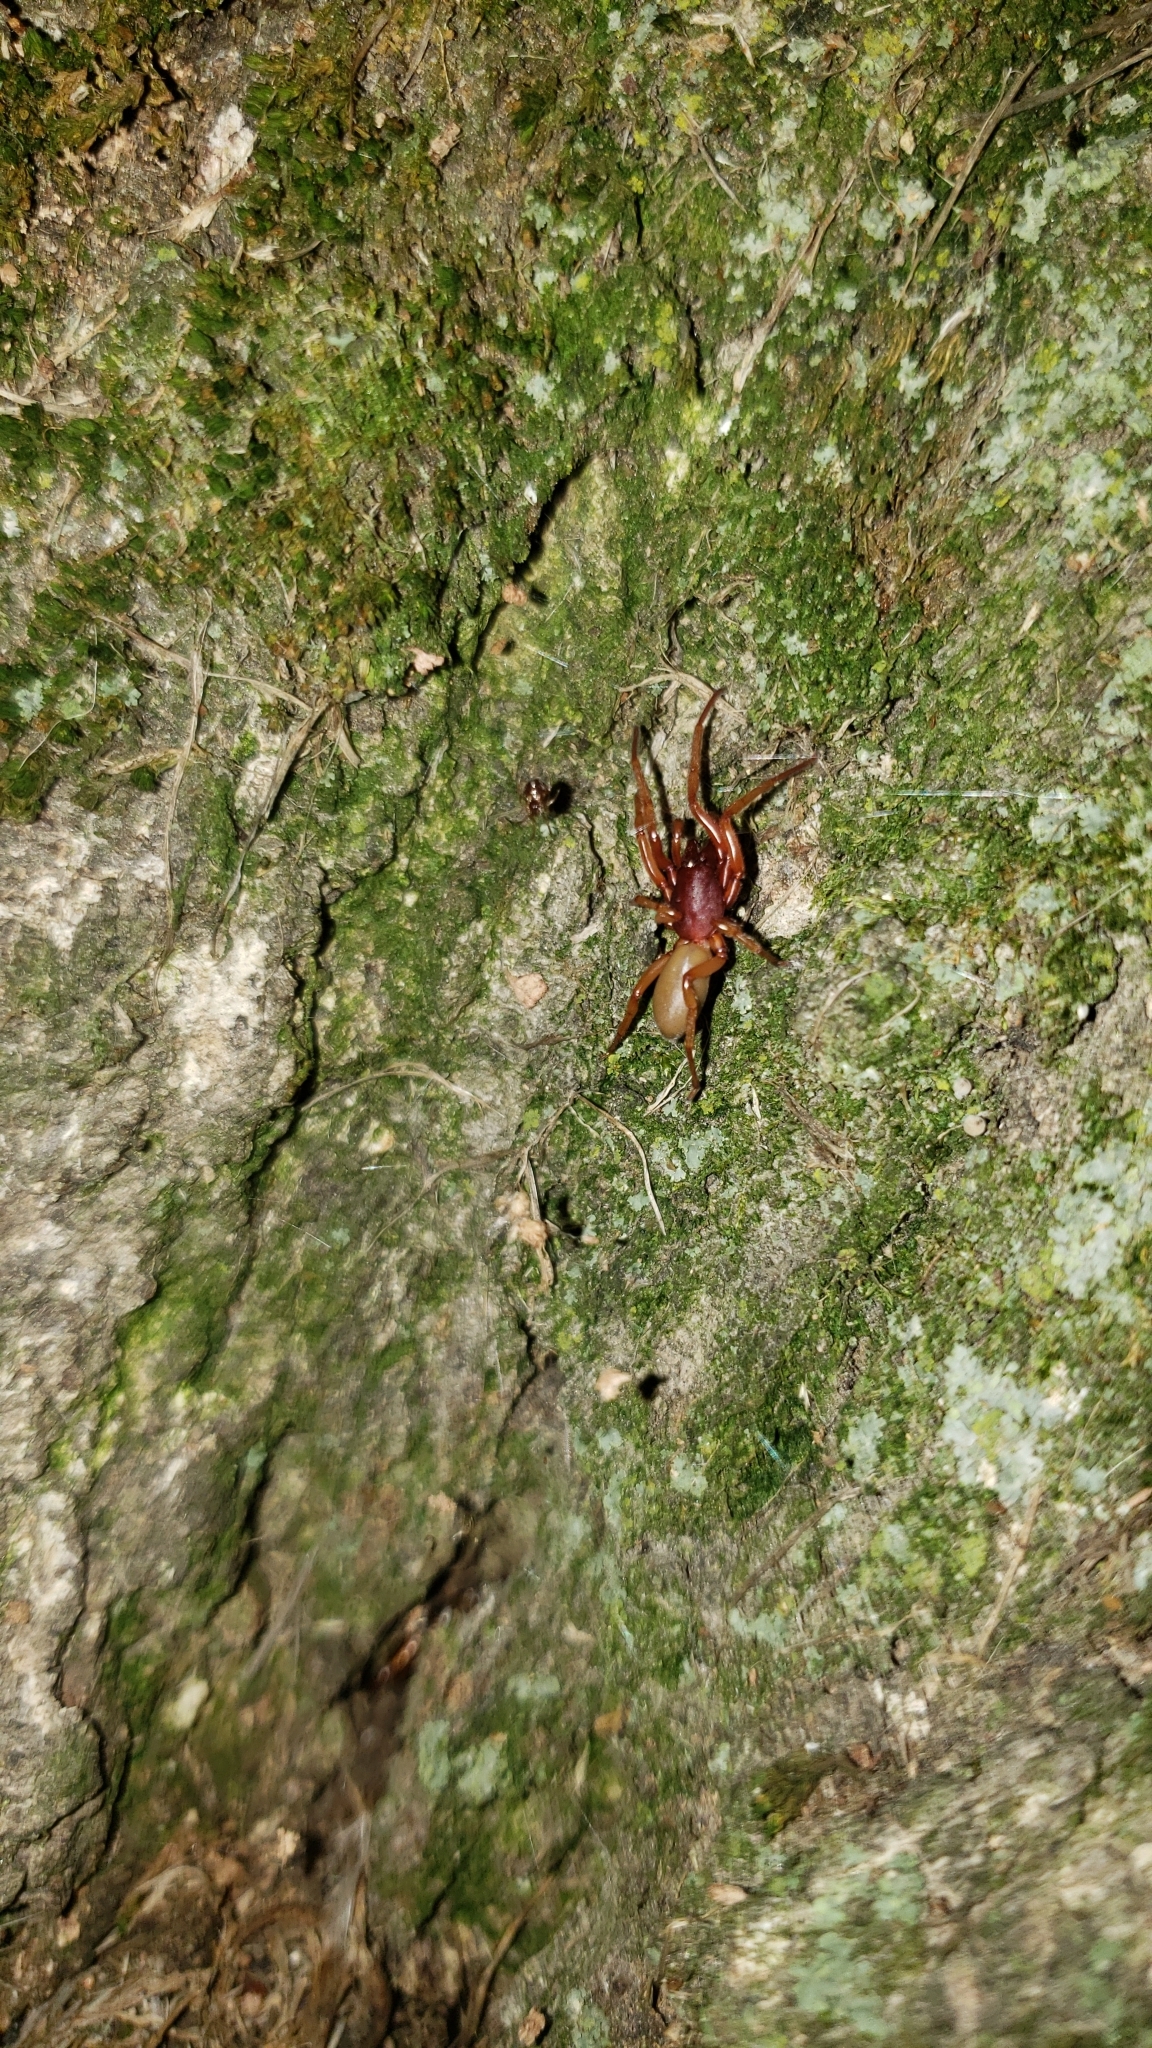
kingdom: Animalia
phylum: Arthropoda
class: Arachnida
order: Araneae
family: Dysderidae
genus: Dysdera
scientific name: Dysdera crocata
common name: Woodlouse spider
